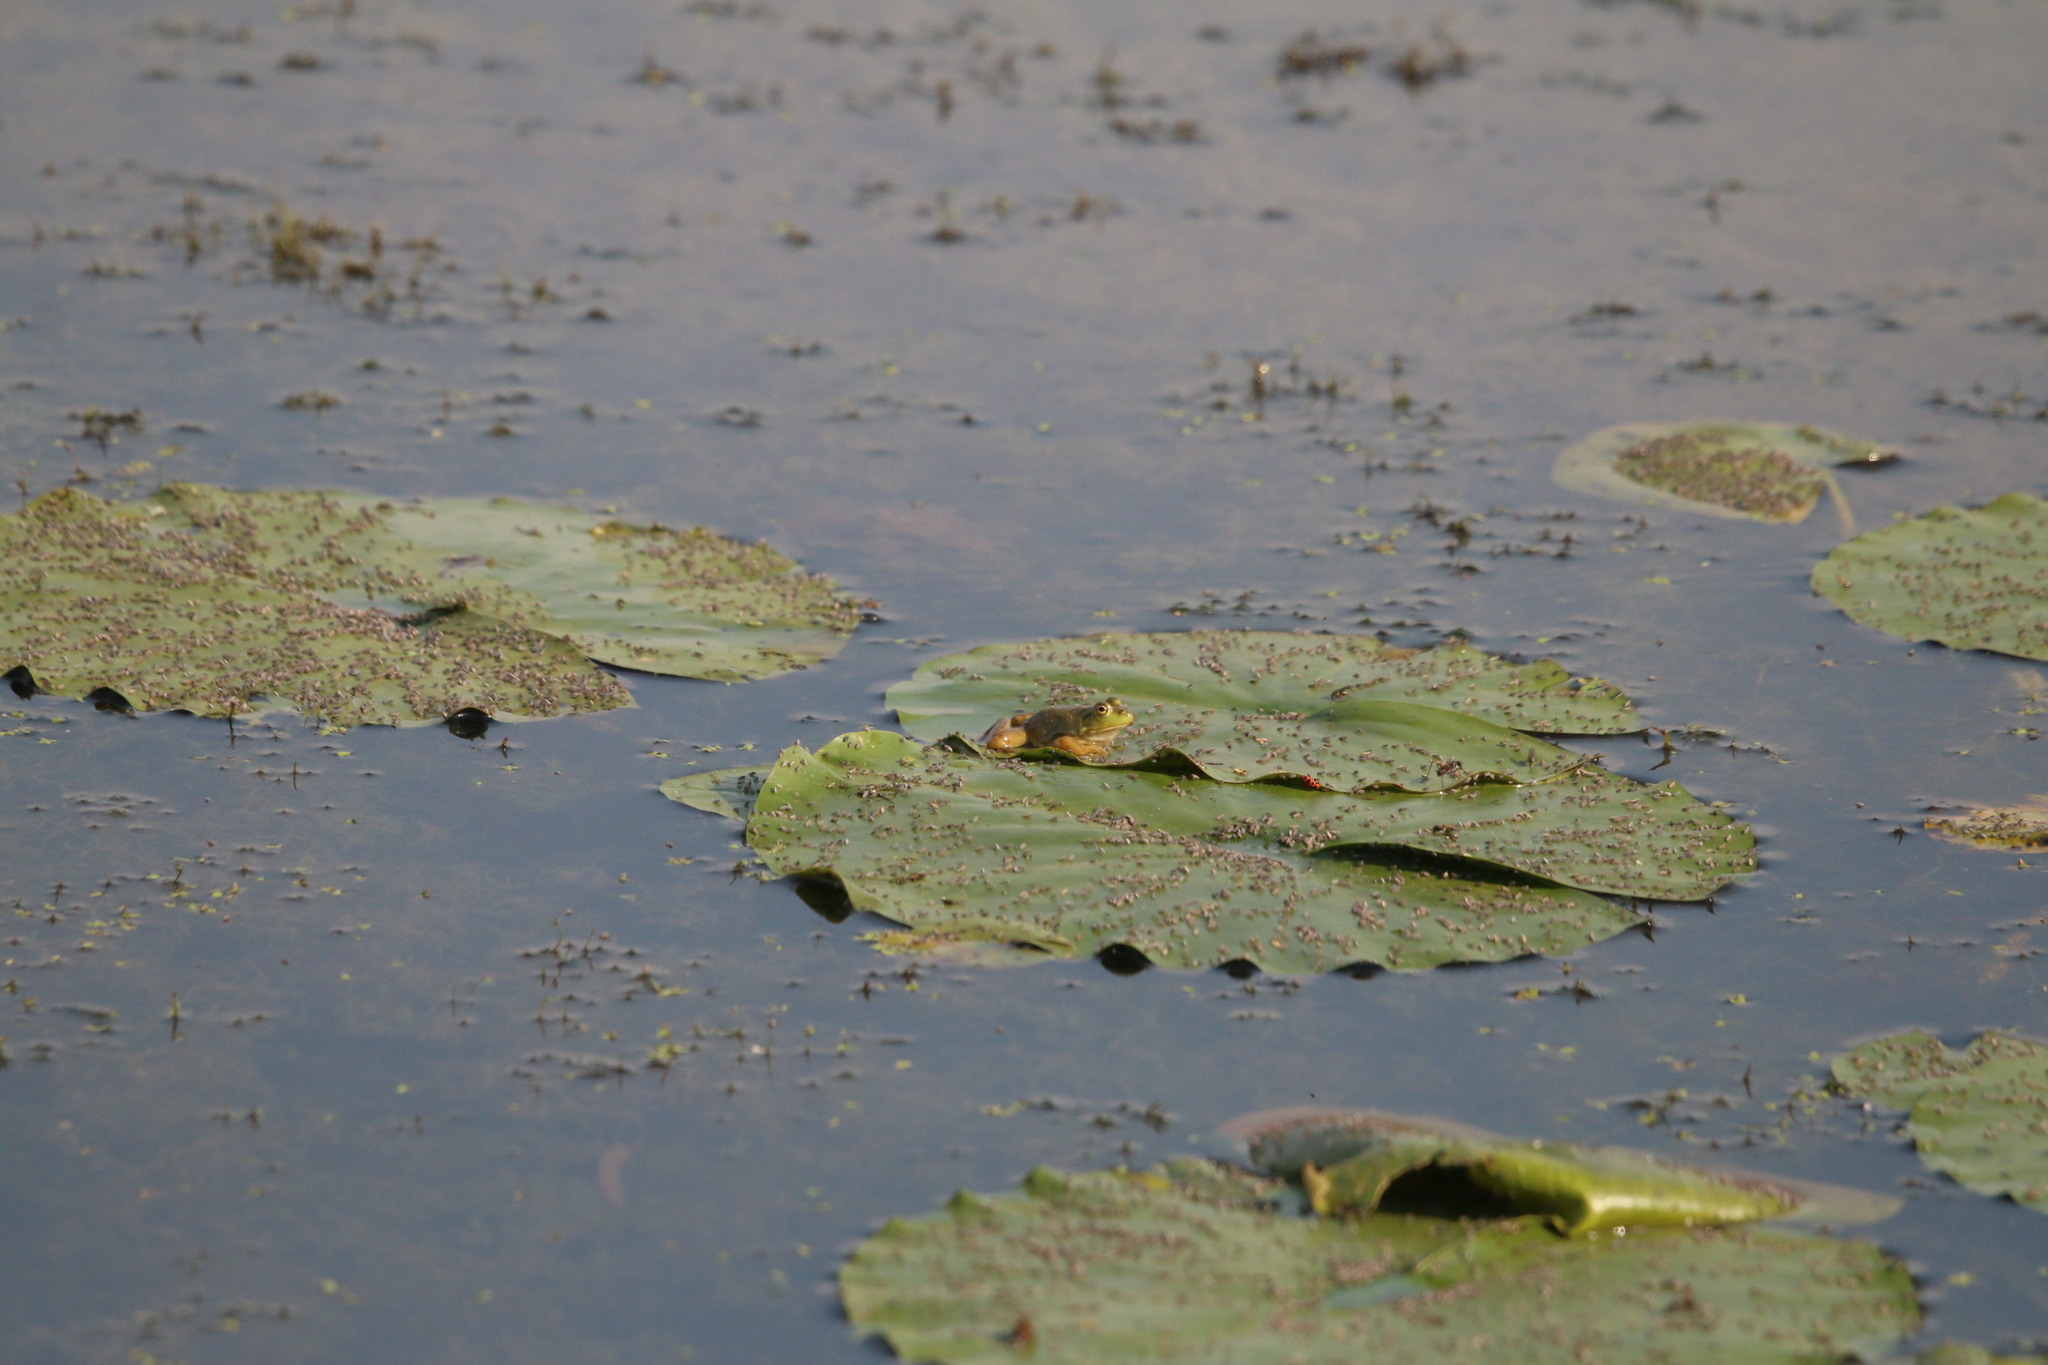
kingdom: Animalia
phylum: Chordata
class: Amphibia
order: Anura
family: Ranidae
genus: Lithobates
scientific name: Lithobates catesbeianus
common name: American bullfrog
